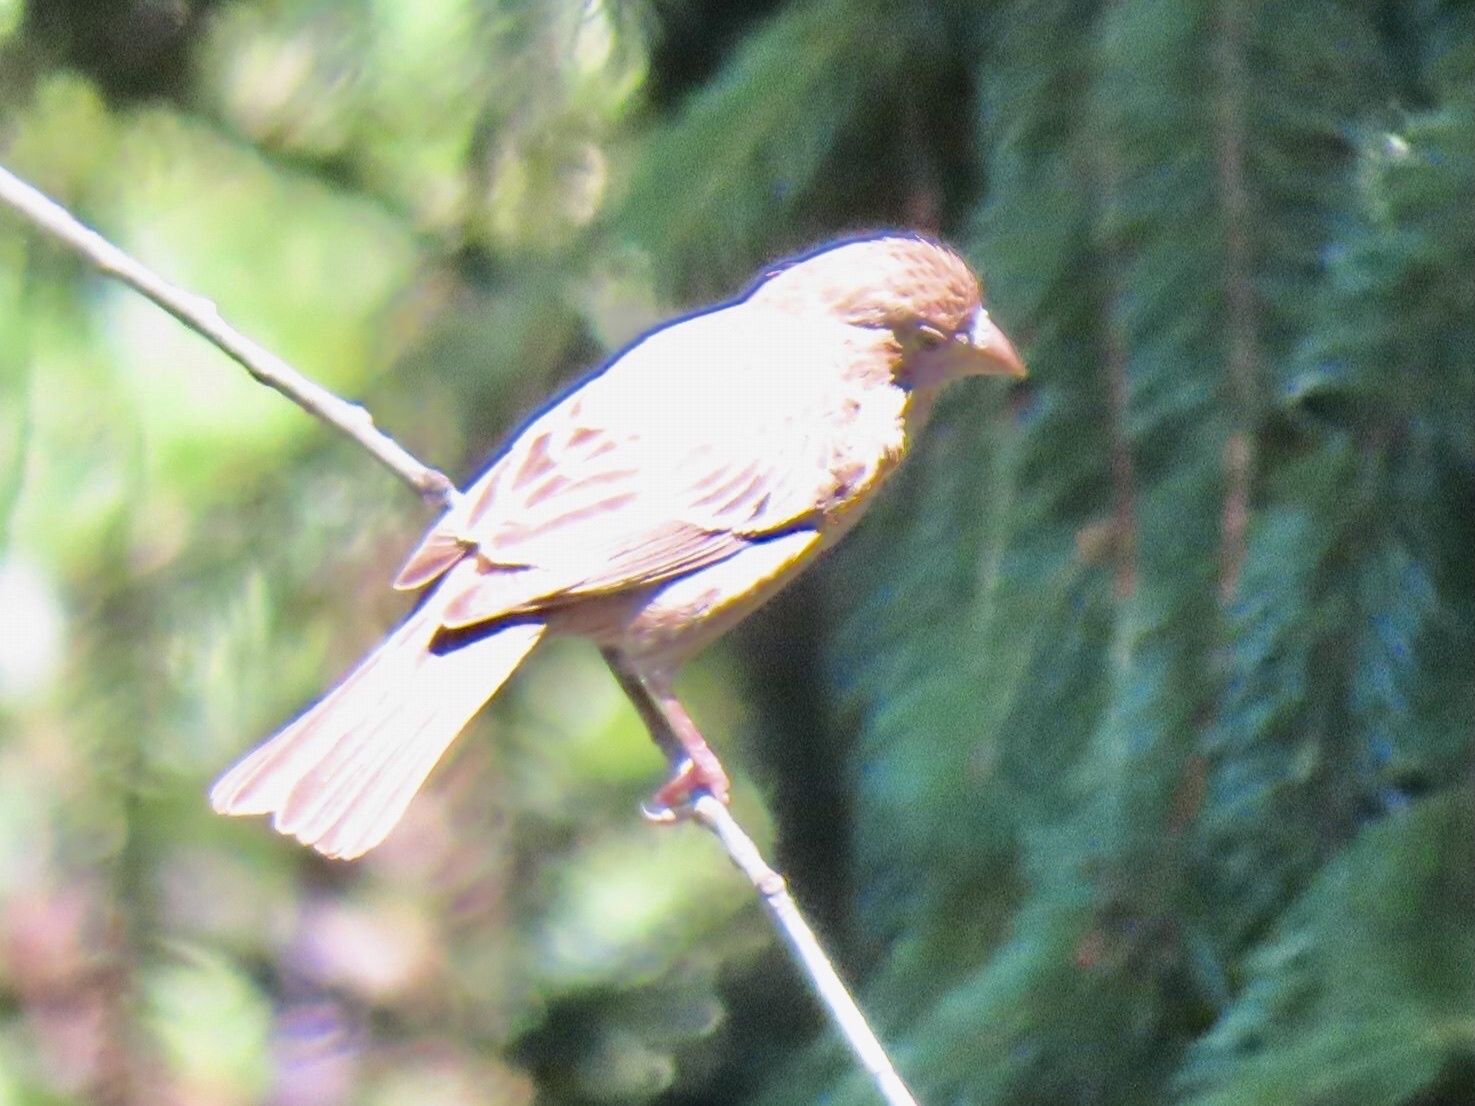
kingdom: Animalia
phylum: Chordata
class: Aves
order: Passeriformes
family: Fringillidae
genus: Haemorhous
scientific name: Haemorhous mexicanus
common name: House finch
